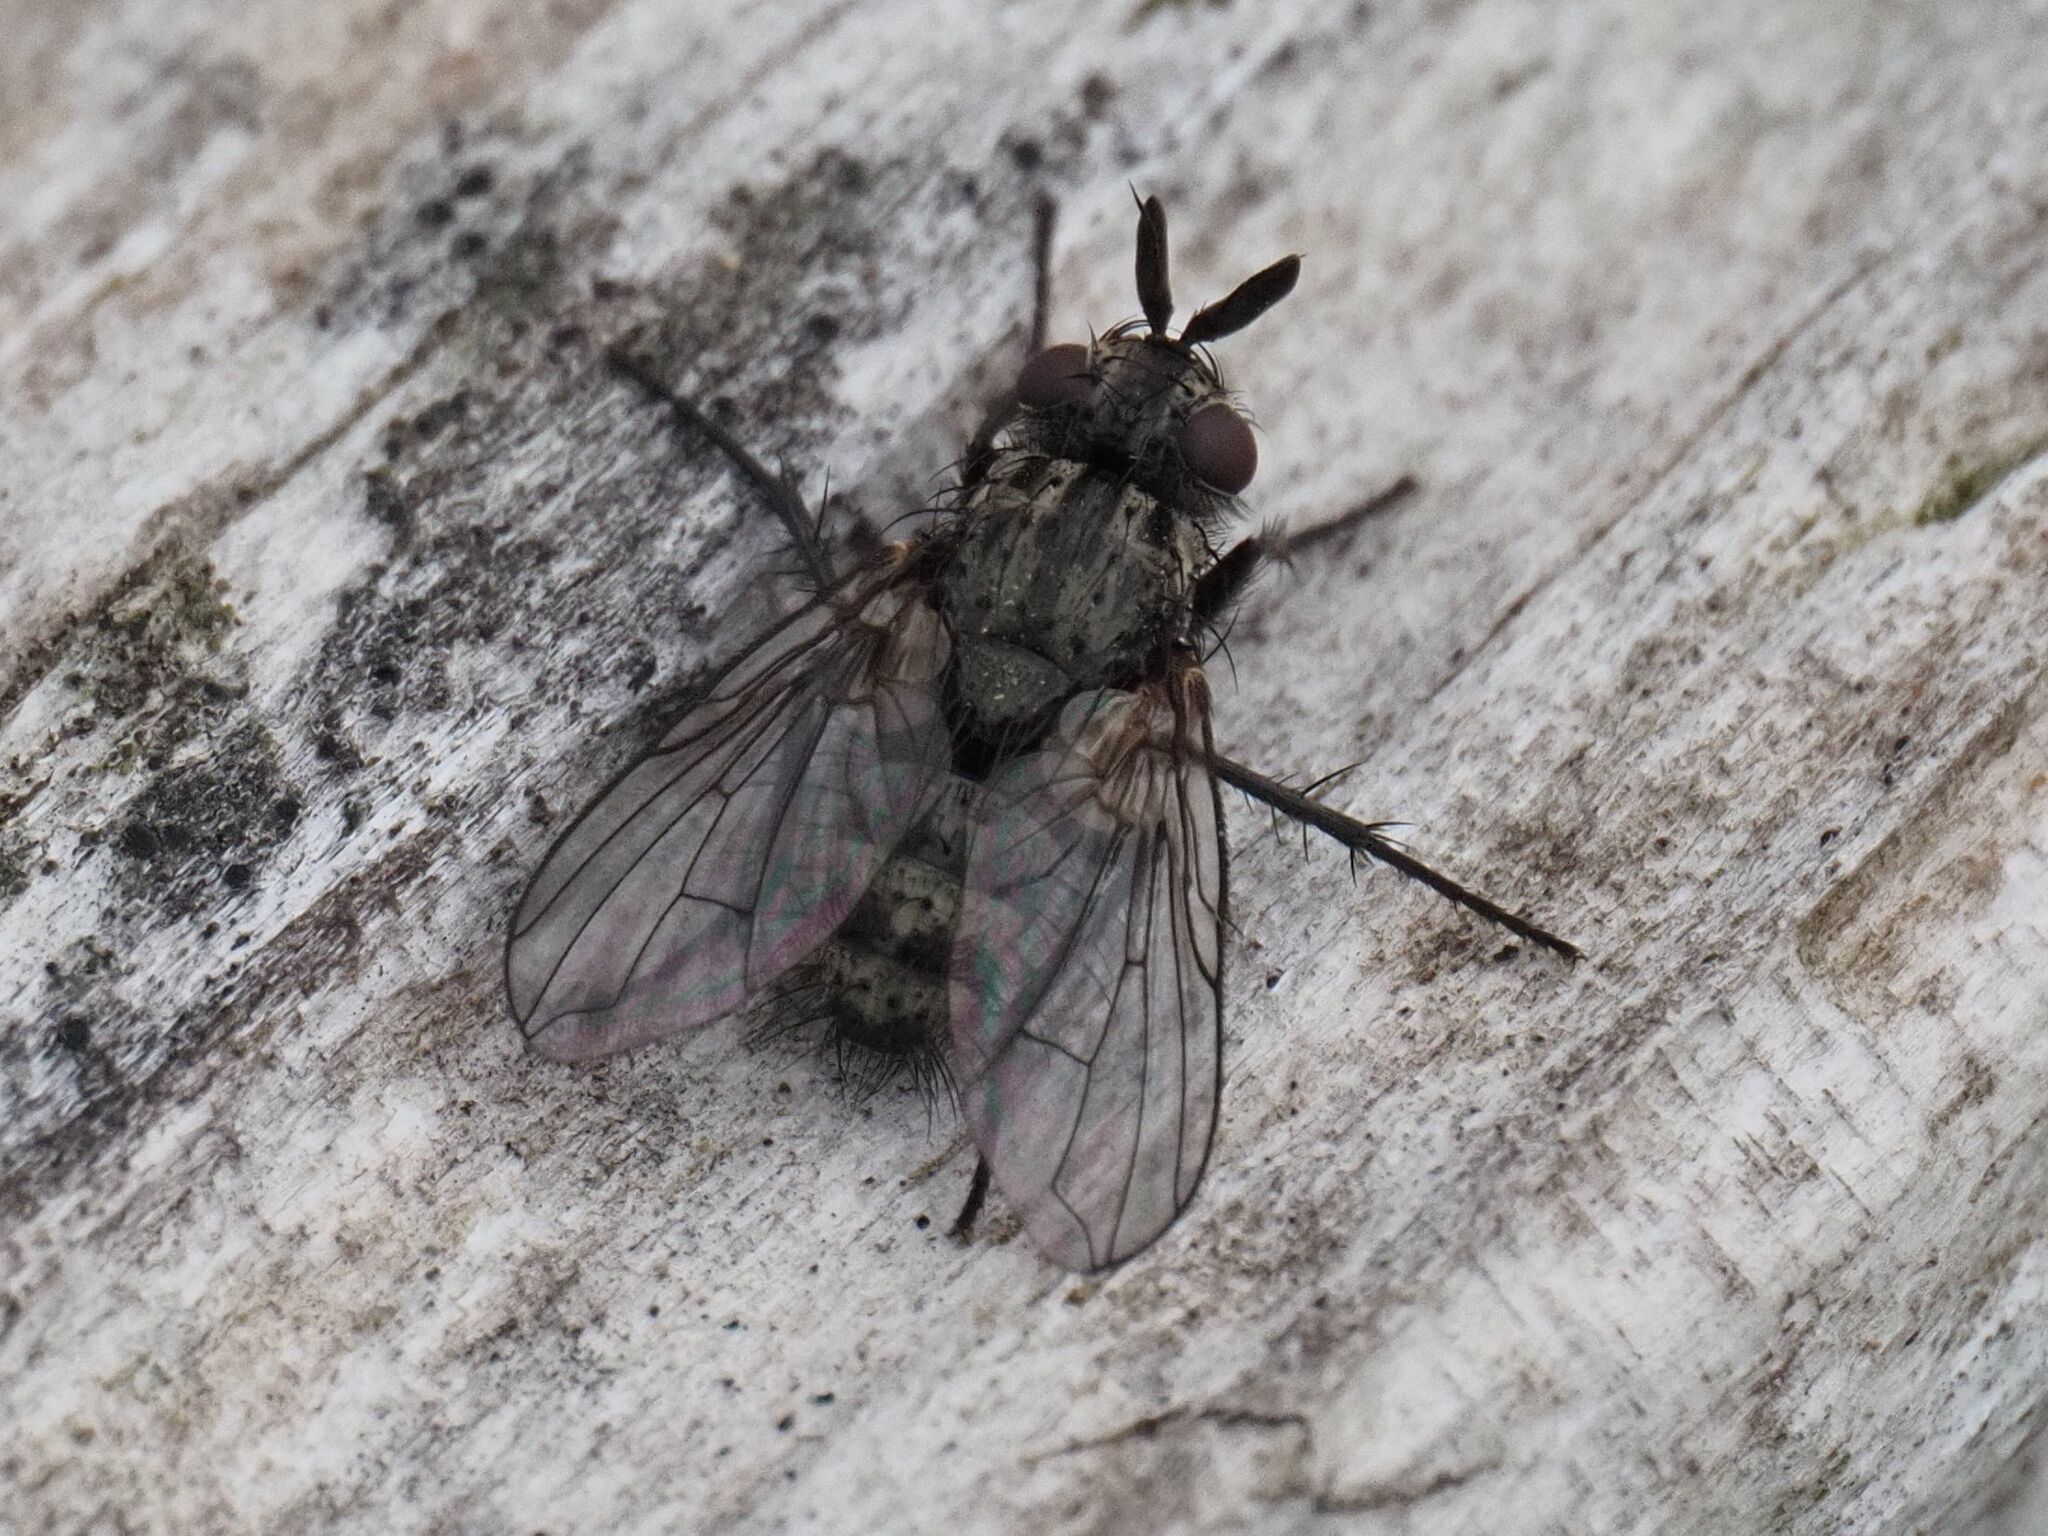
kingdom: Animalia
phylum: Arthropoda
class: Insecta
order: Diptera
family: Tachinidae
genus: Triarthria
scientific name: Triarthria setipennis
